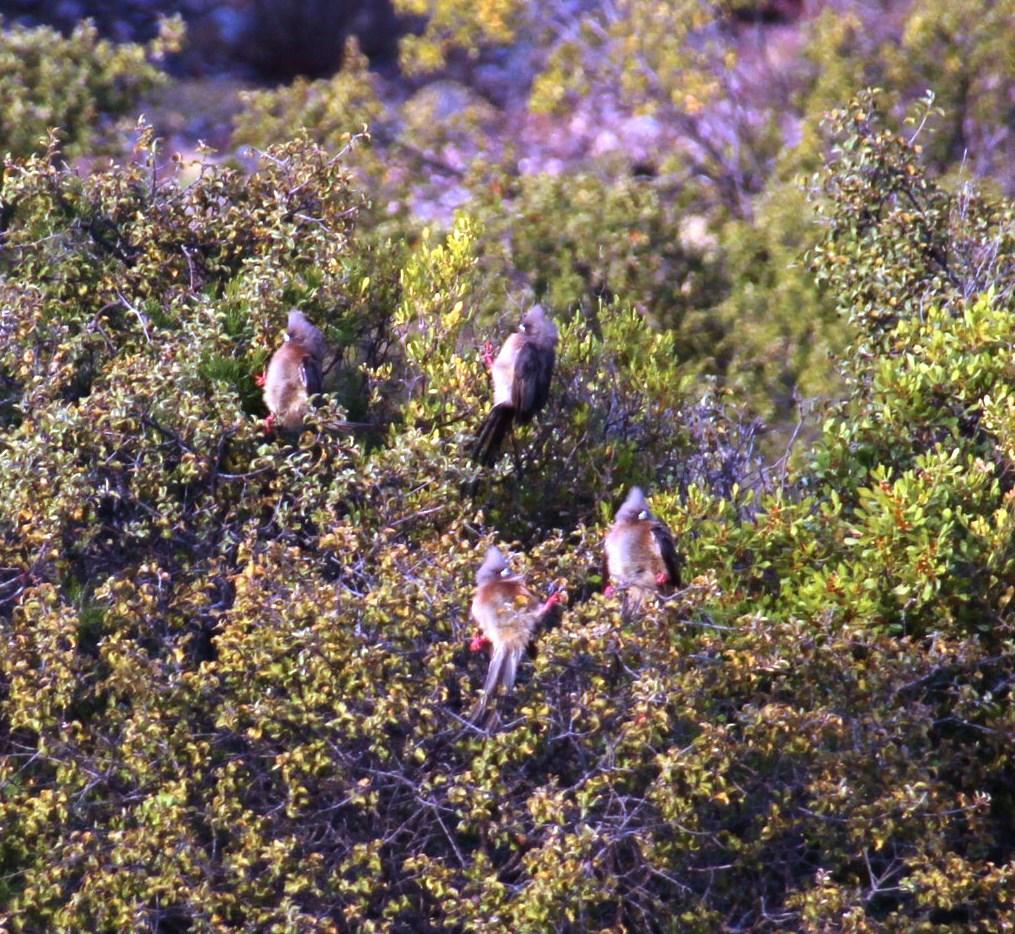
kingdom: Animalia
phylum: Chordata
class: Aves
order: Coliiformes
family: Coliidae
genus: Colius
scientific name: Colius colius
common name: White-backed mousebird
